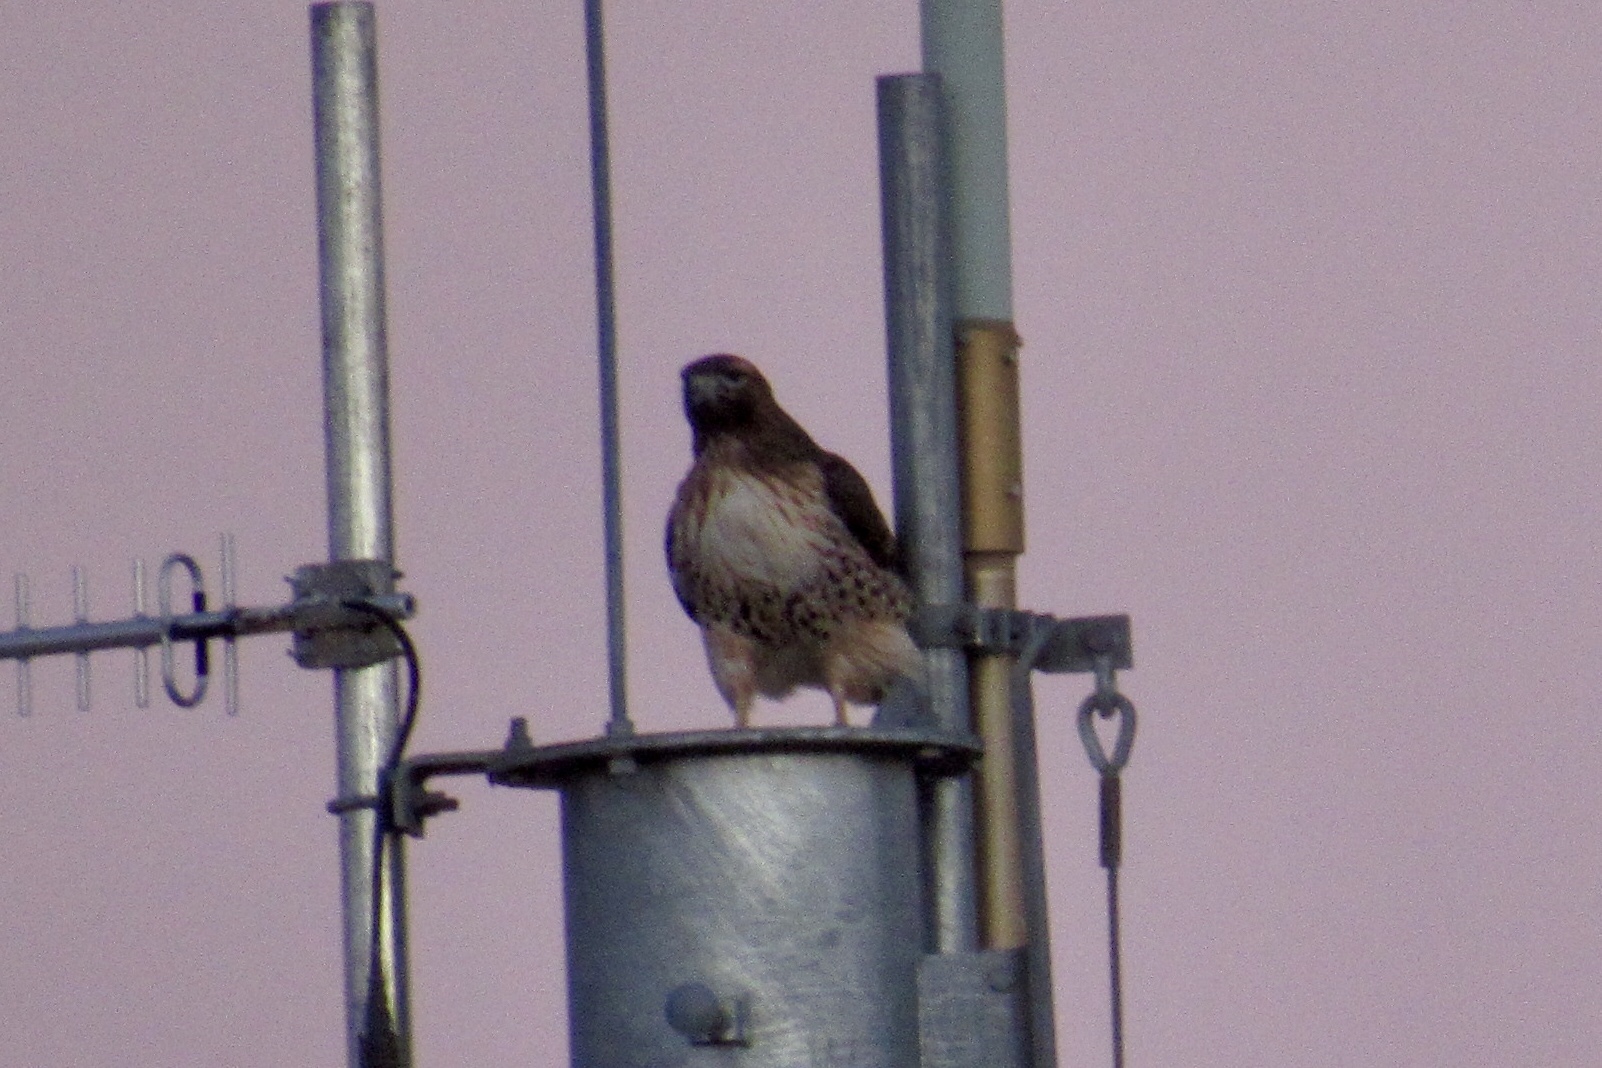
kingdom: Animalia
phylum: Chordata
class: Aves
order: Accipitriformes
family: Accipitridae
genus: Buteo
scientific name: Buteo jamaicensis
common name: Red-tailed hawk
